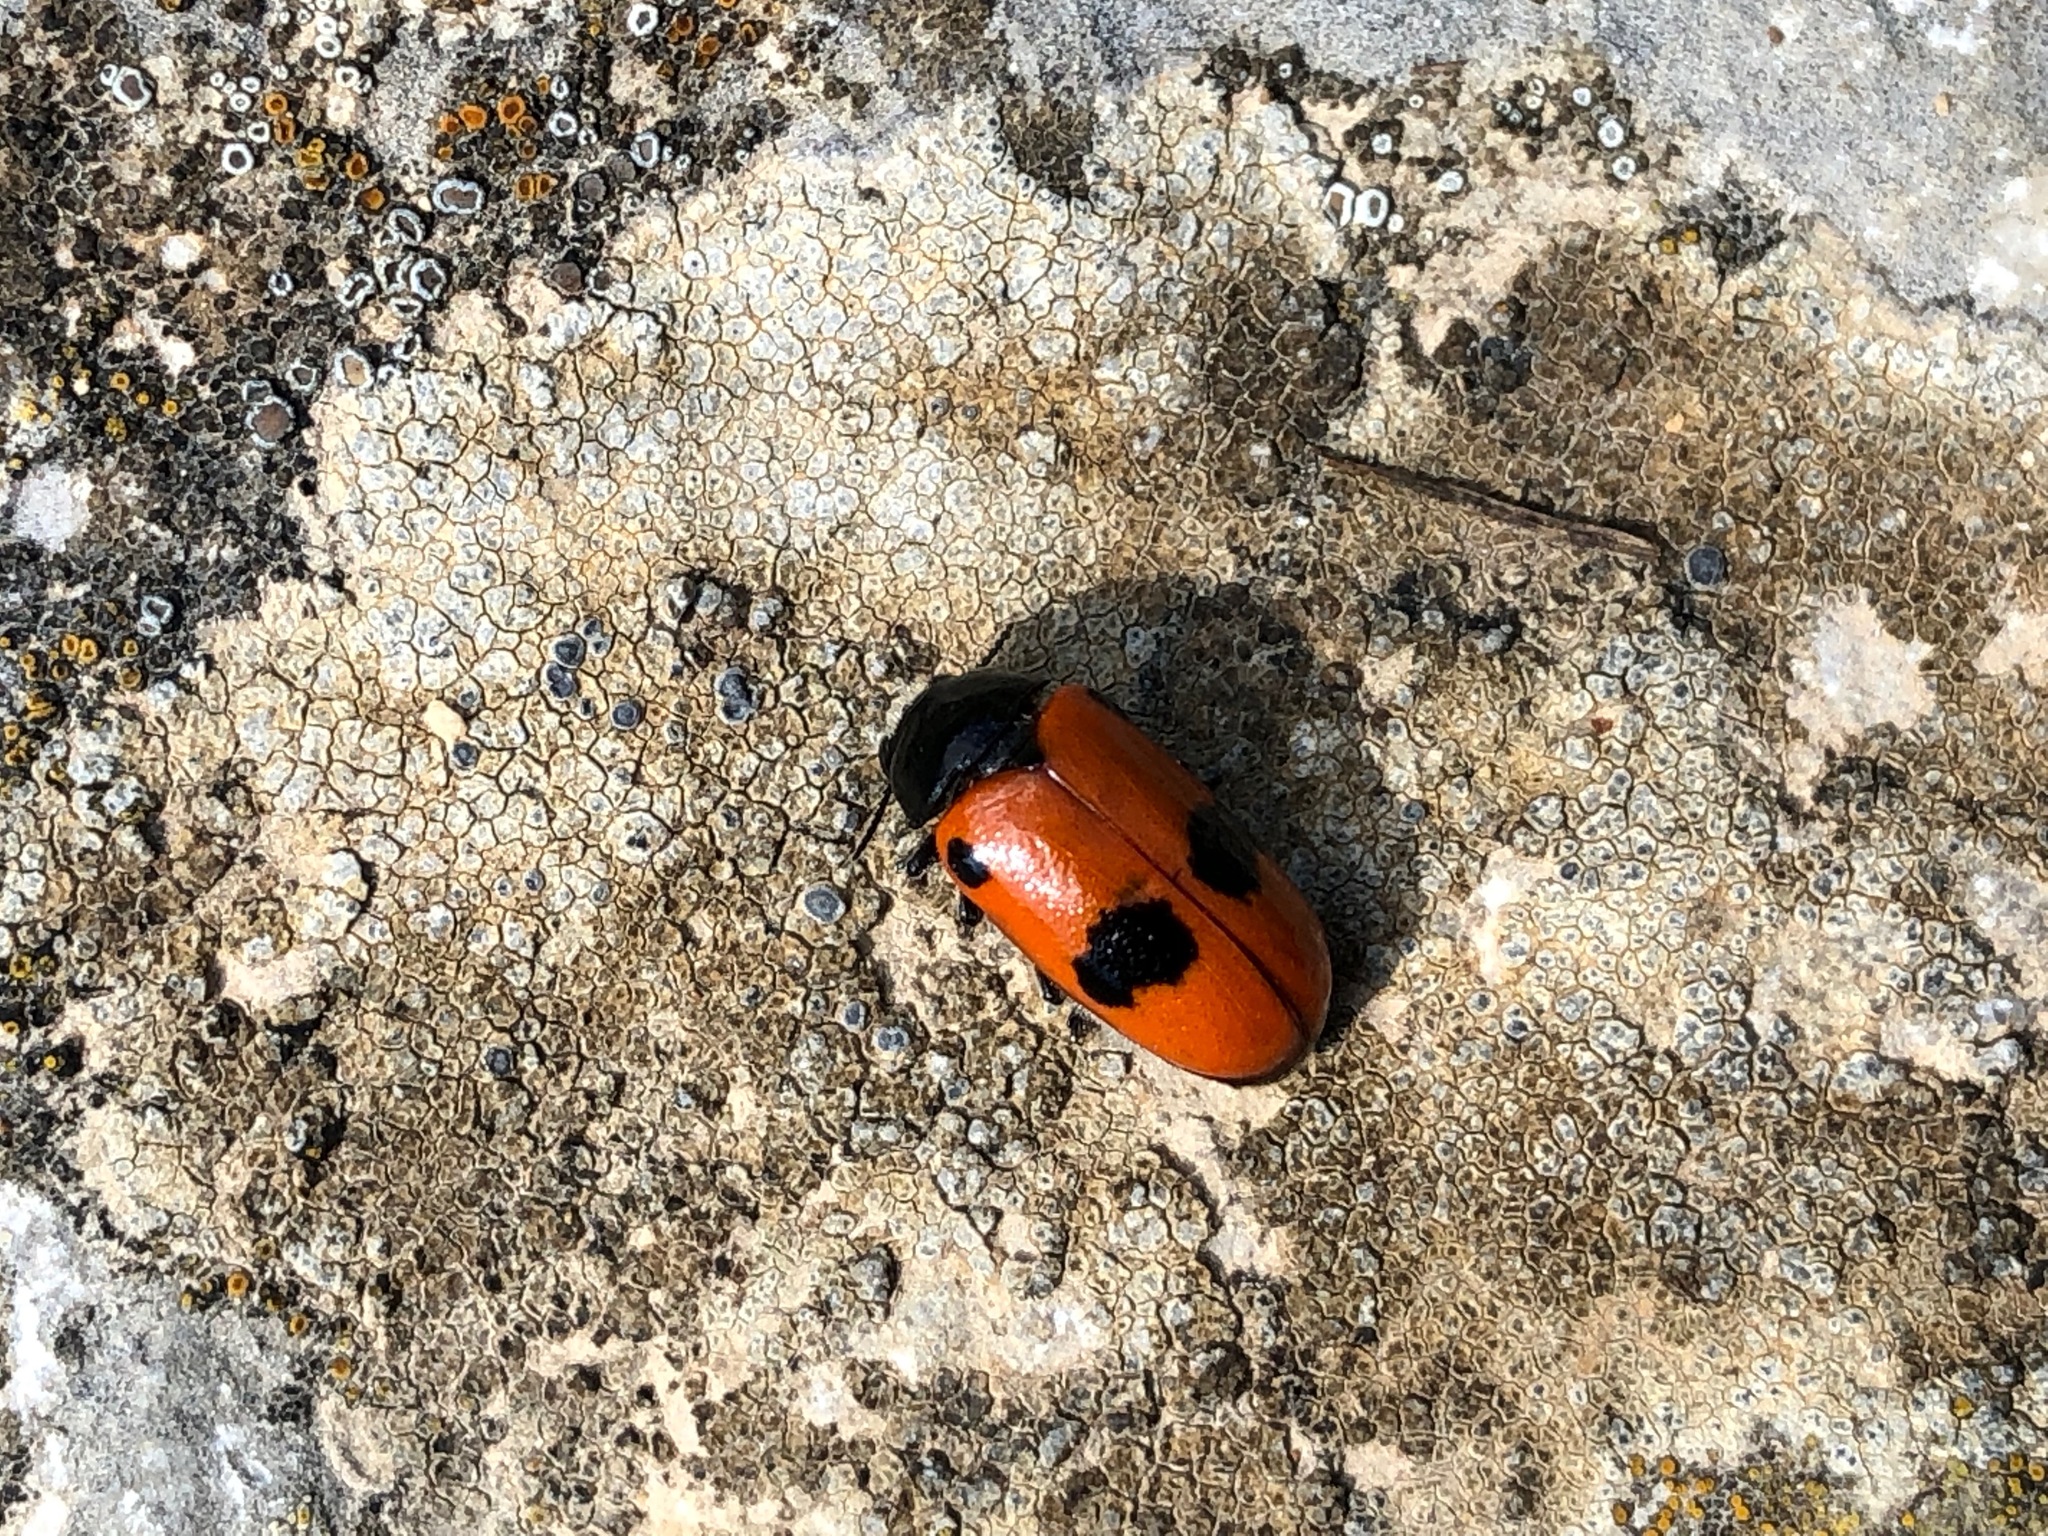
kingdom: Animalia
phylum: Arthropoda
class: Insecta
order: Coleoptera
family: Chrysomelidae
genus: Clytra
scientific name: Clytra laeviuscula
